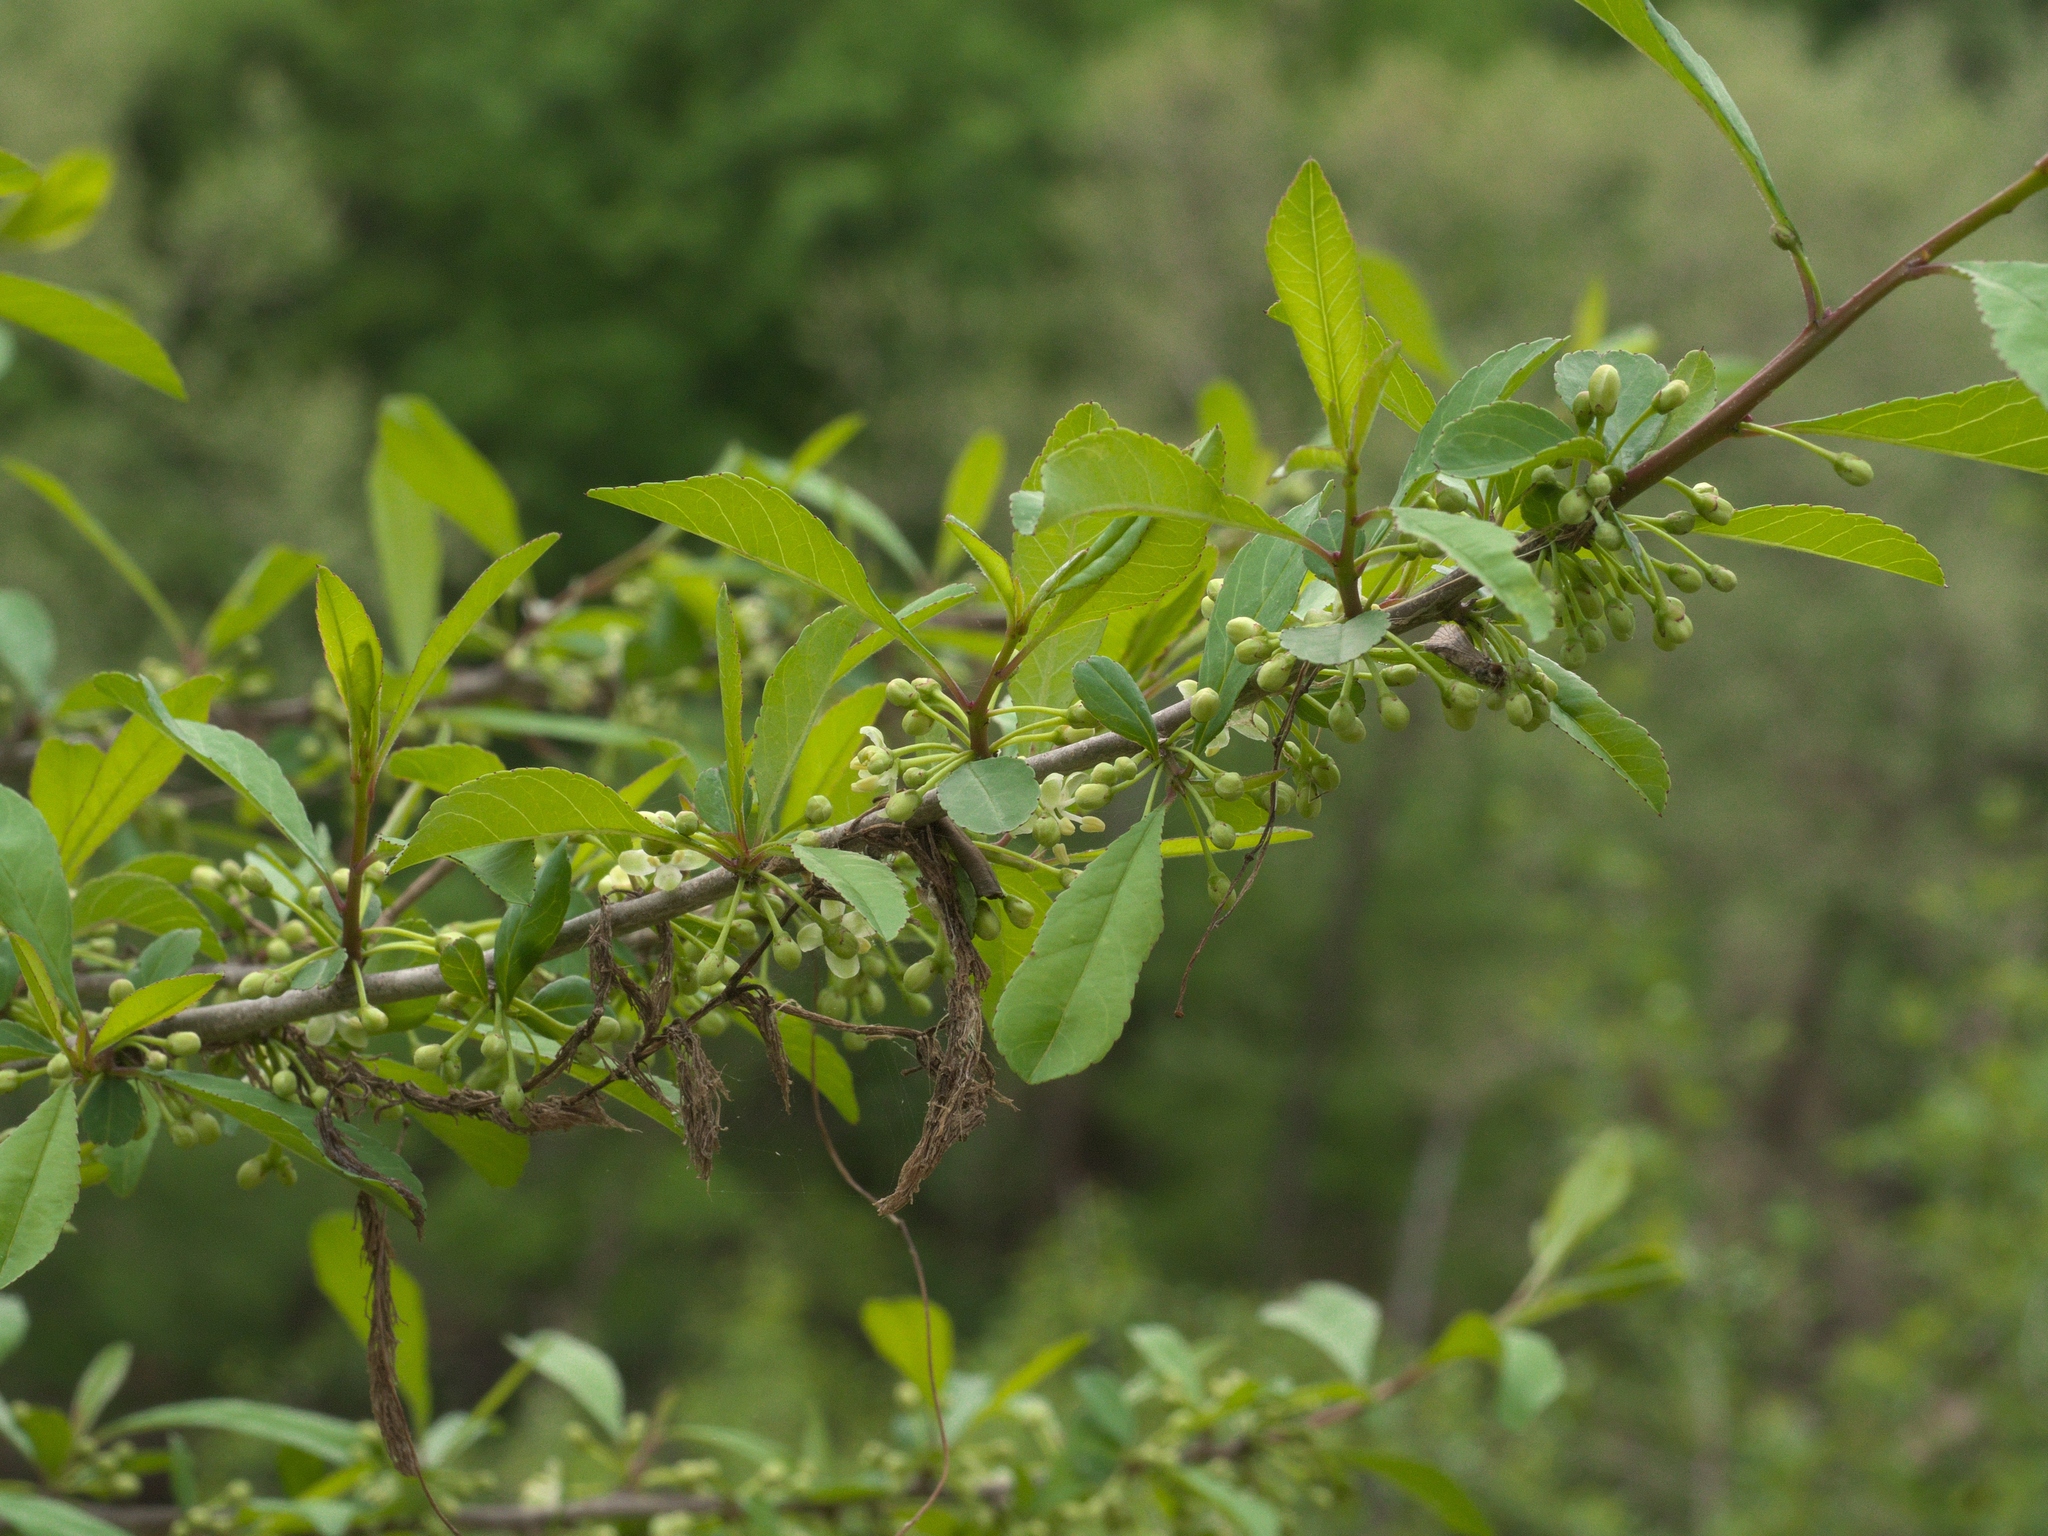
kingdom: Plantae
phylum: Tracheophyta
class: Magnoliopsida
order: Aquifoliales
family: Aquifoliaceae
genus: Ilex
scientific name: Ilex decidua
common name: Possum-haw
